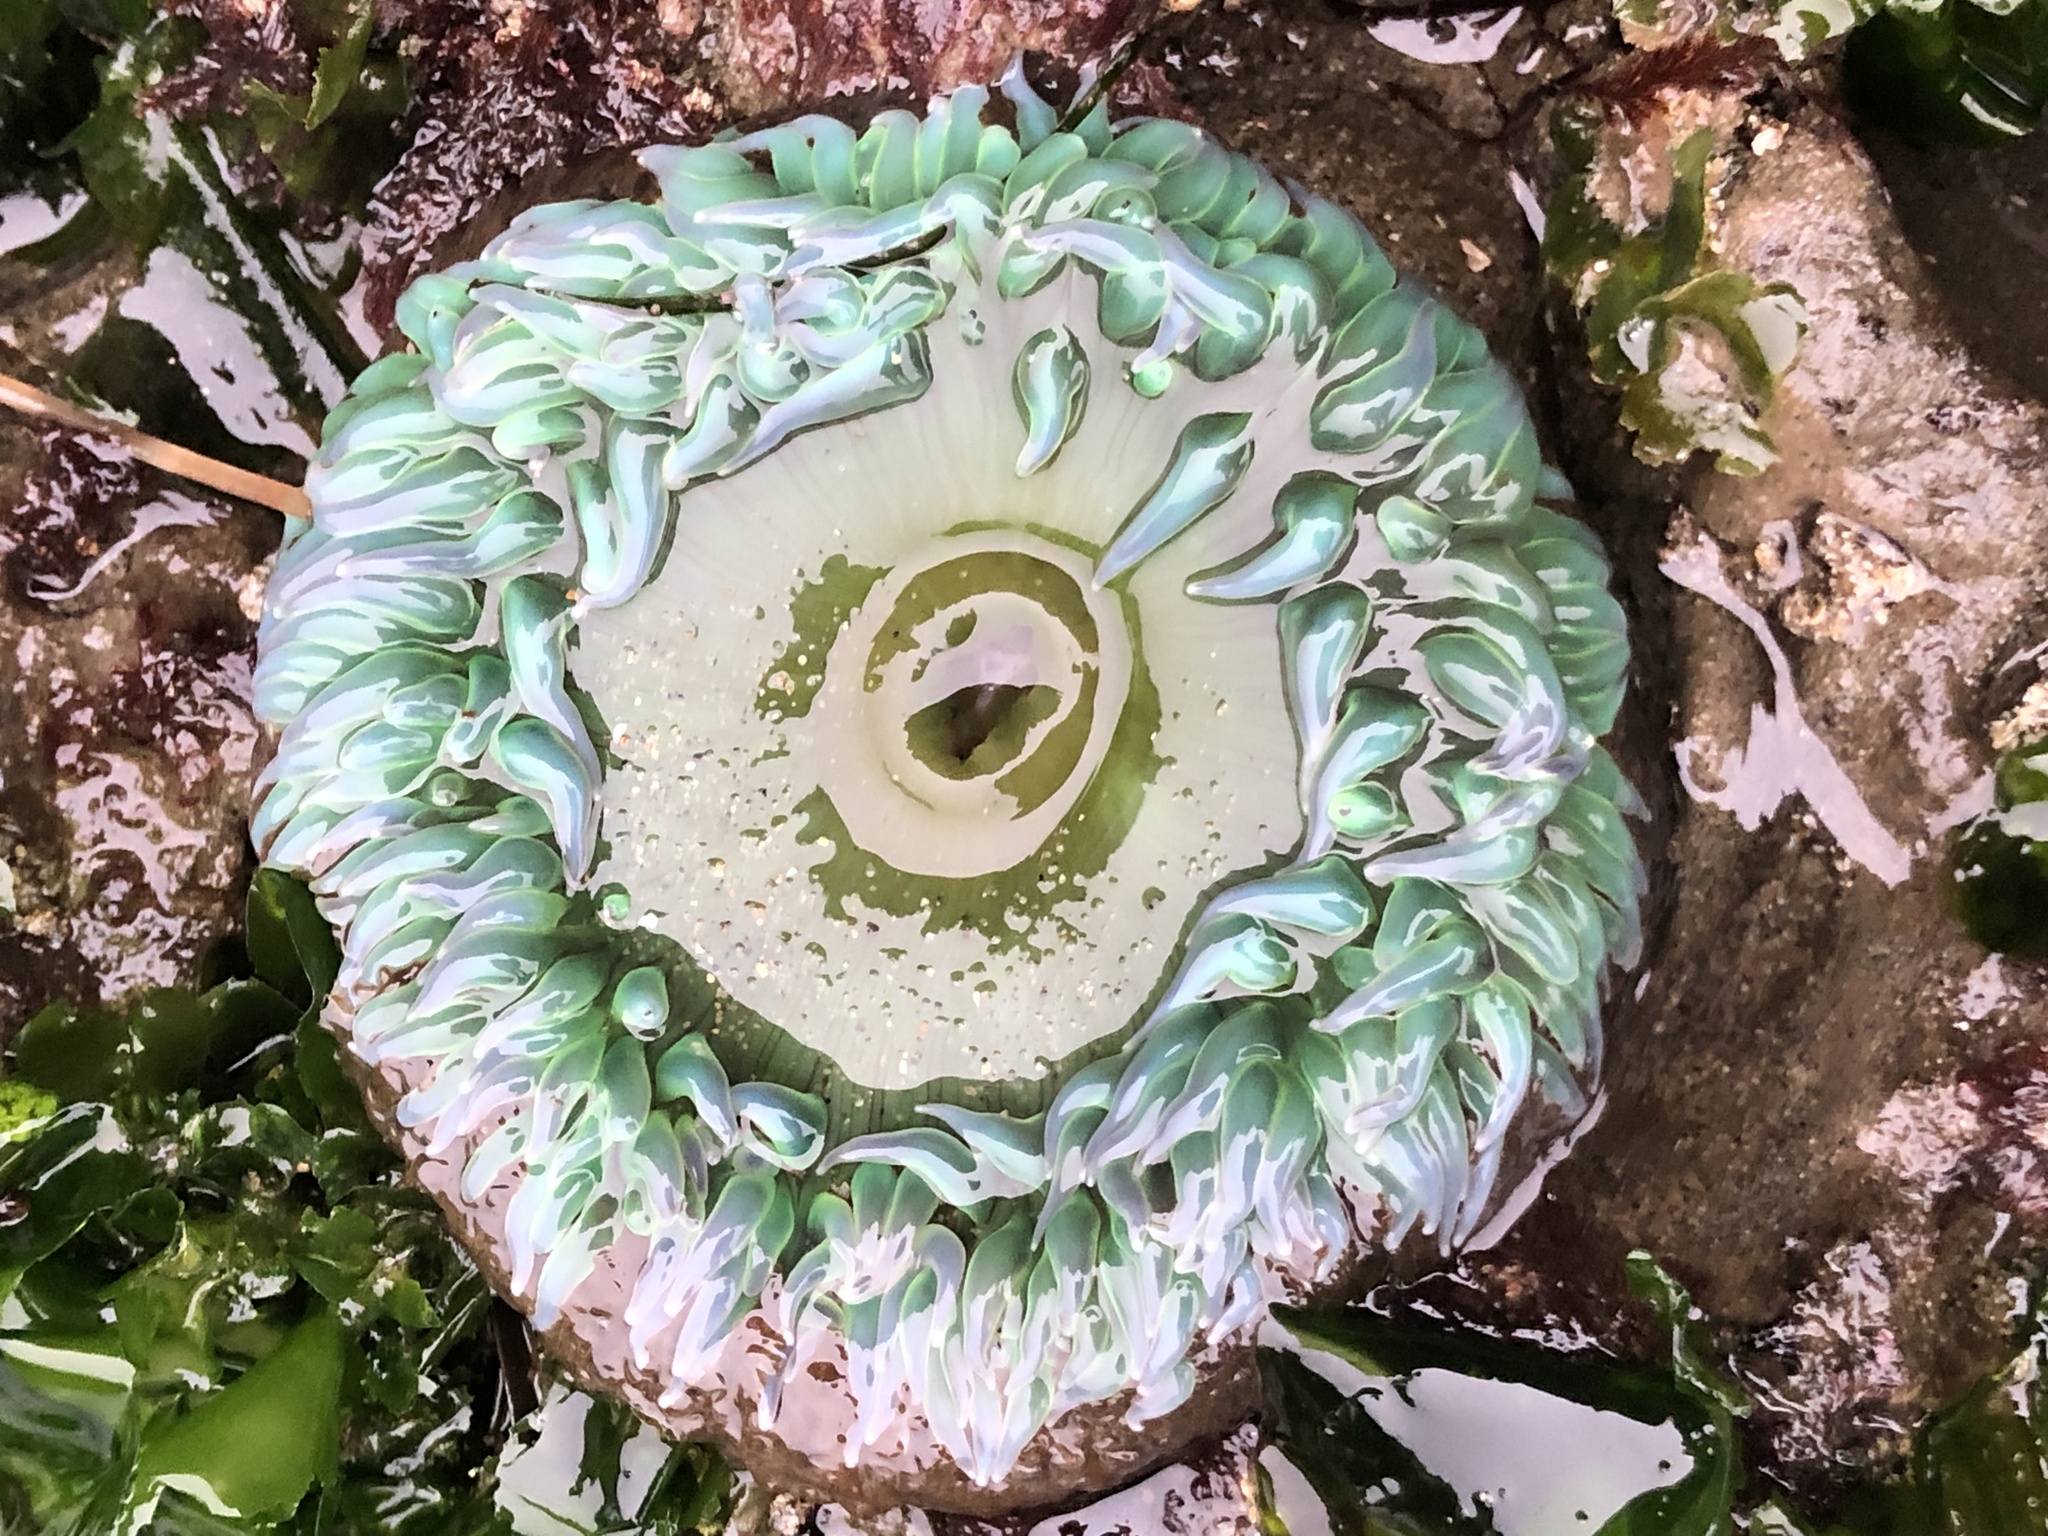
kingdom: Animalia
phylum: Cnidaria
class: Anthozoa
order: Actiniaria
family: Actiniidae
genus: Anthopleura
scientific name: Anthopleura xanthogrammica
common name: Giant green anemone
